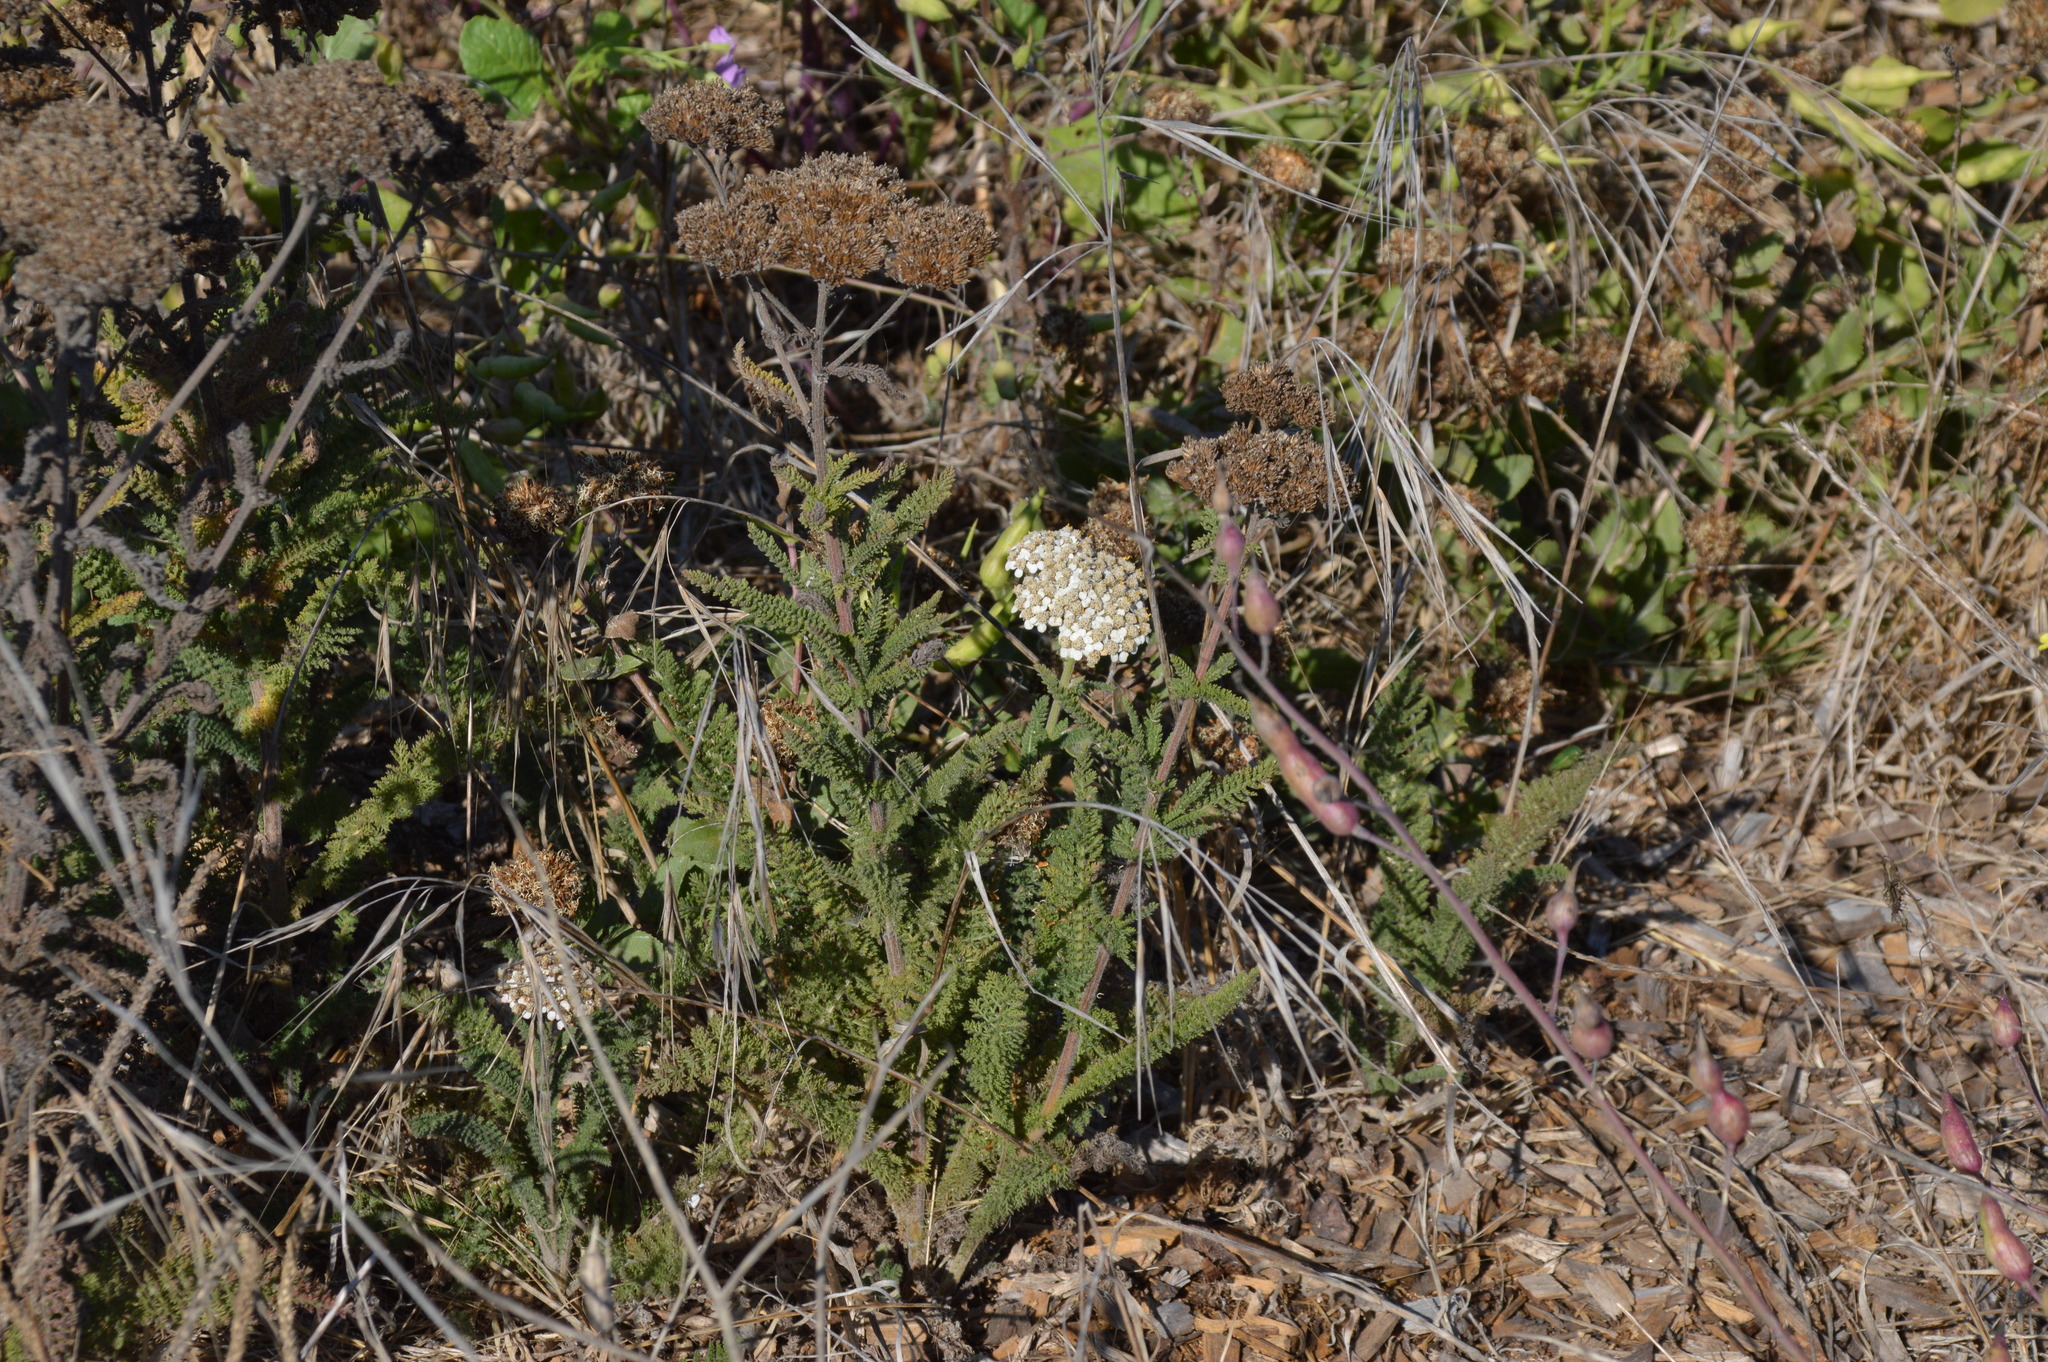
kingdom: Plantae
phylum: Tracheophyta
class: Magnoliopsida
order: Asterales
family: Asteraceae
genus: Achillea
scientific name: Achillea millefolium
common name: Yarrow
